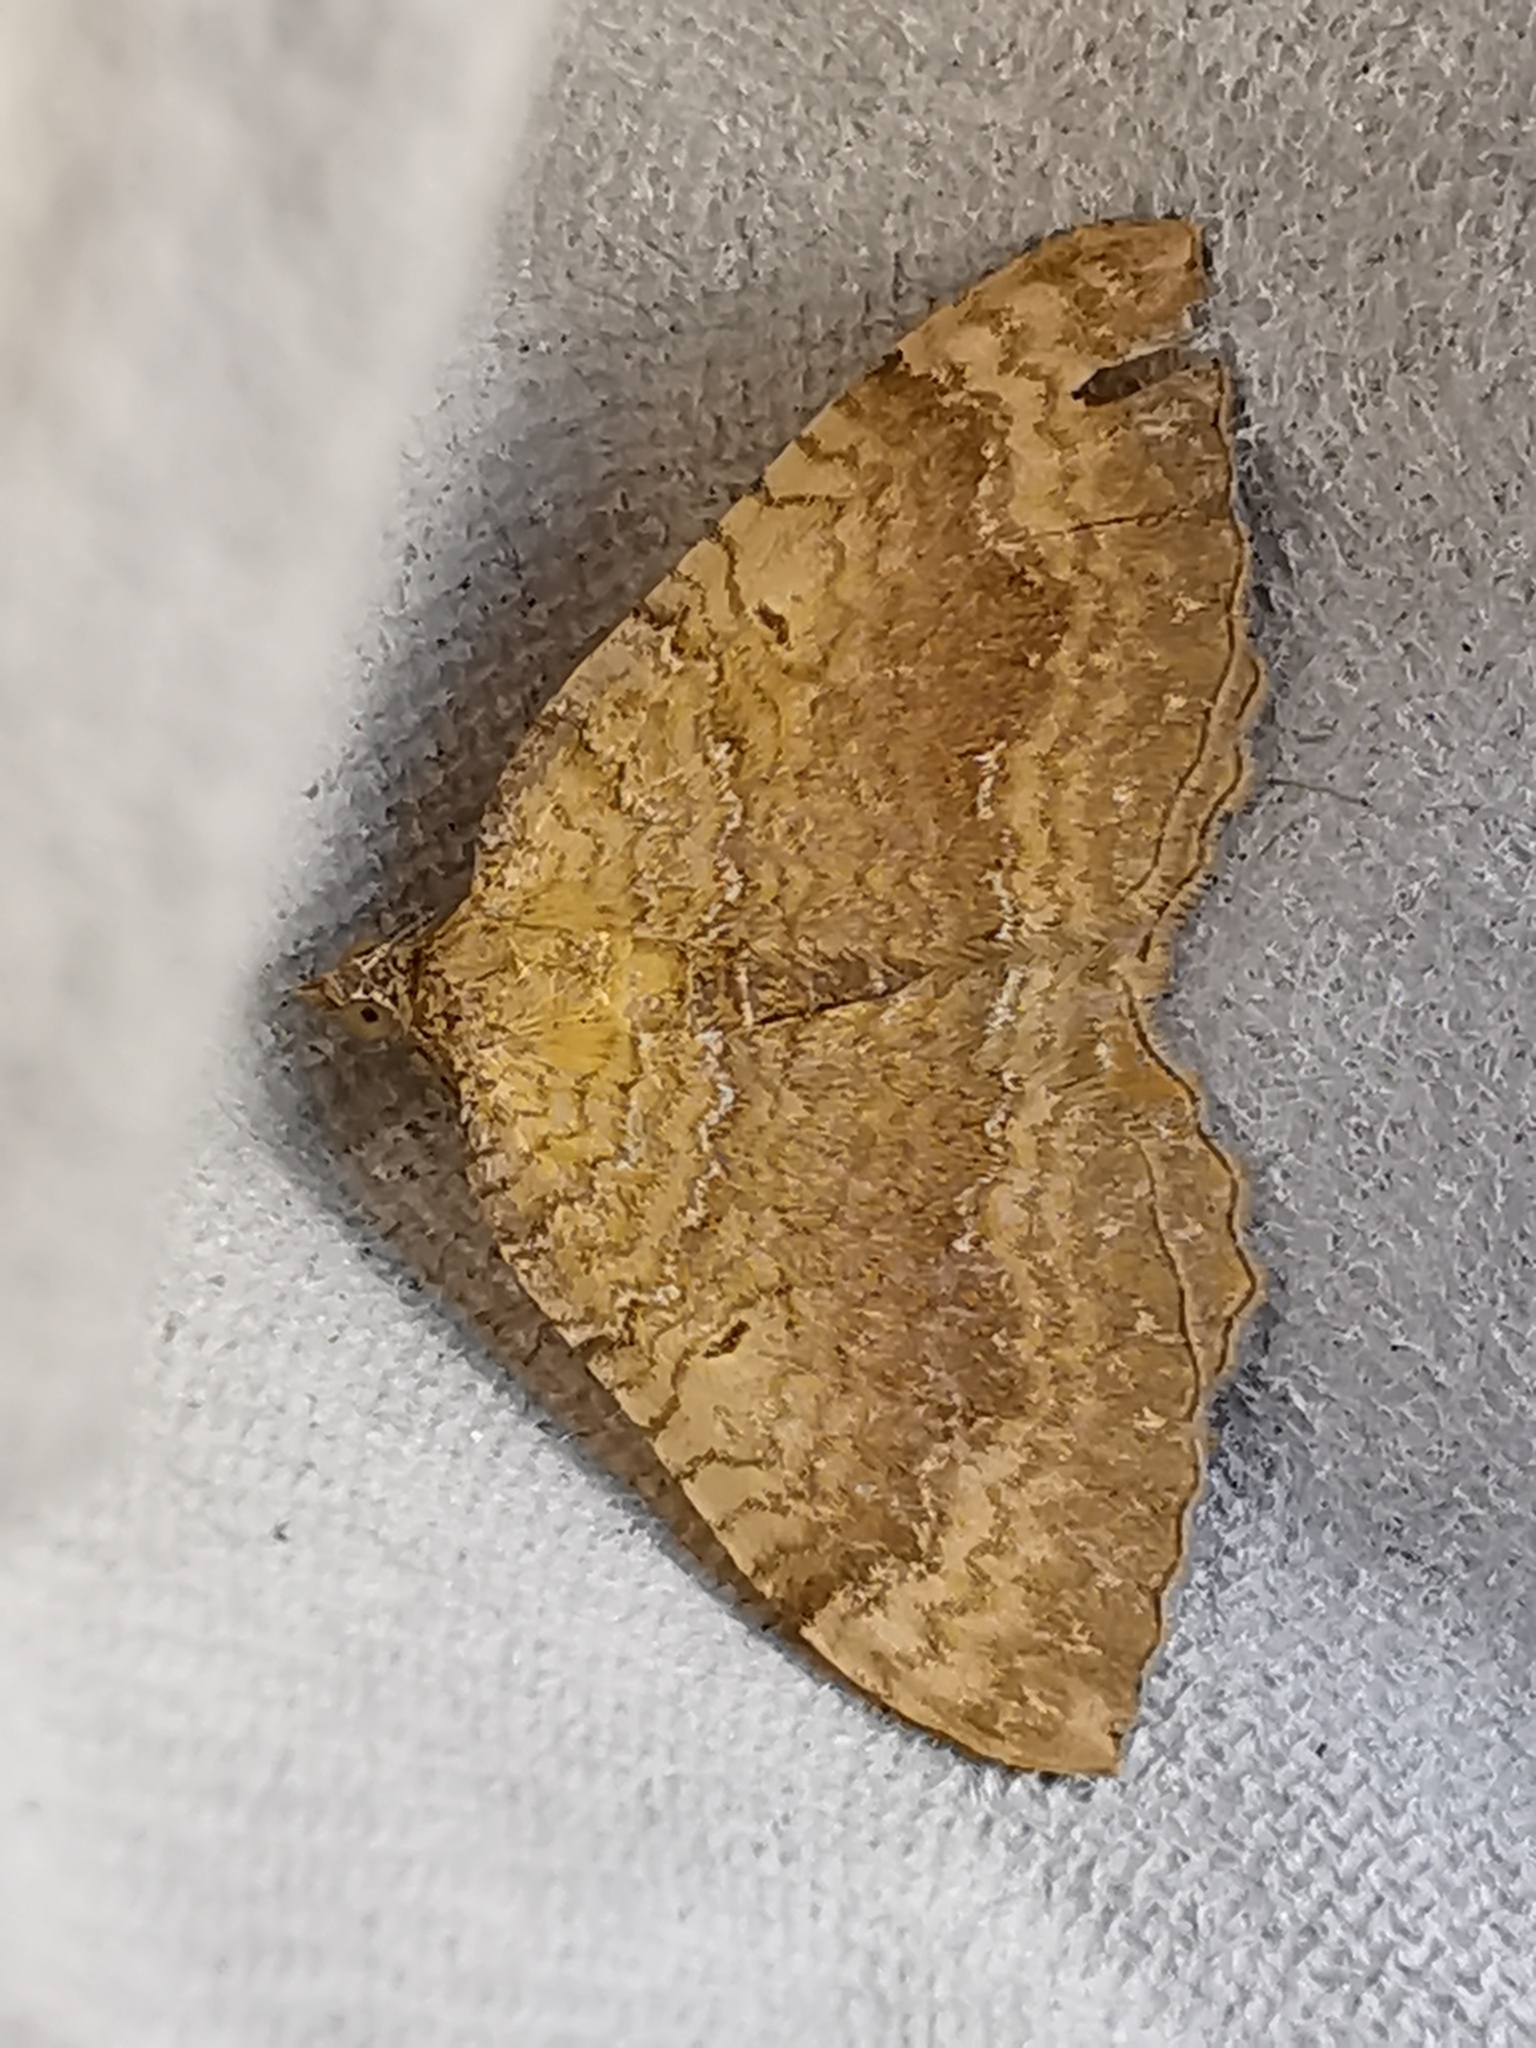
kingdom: Animalia
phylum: Arthropoda
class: Insecta
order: Lepidoptera
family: Geometridae
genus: Camptogramma
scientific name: Camptogramma bilineata
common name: Yellow shell
